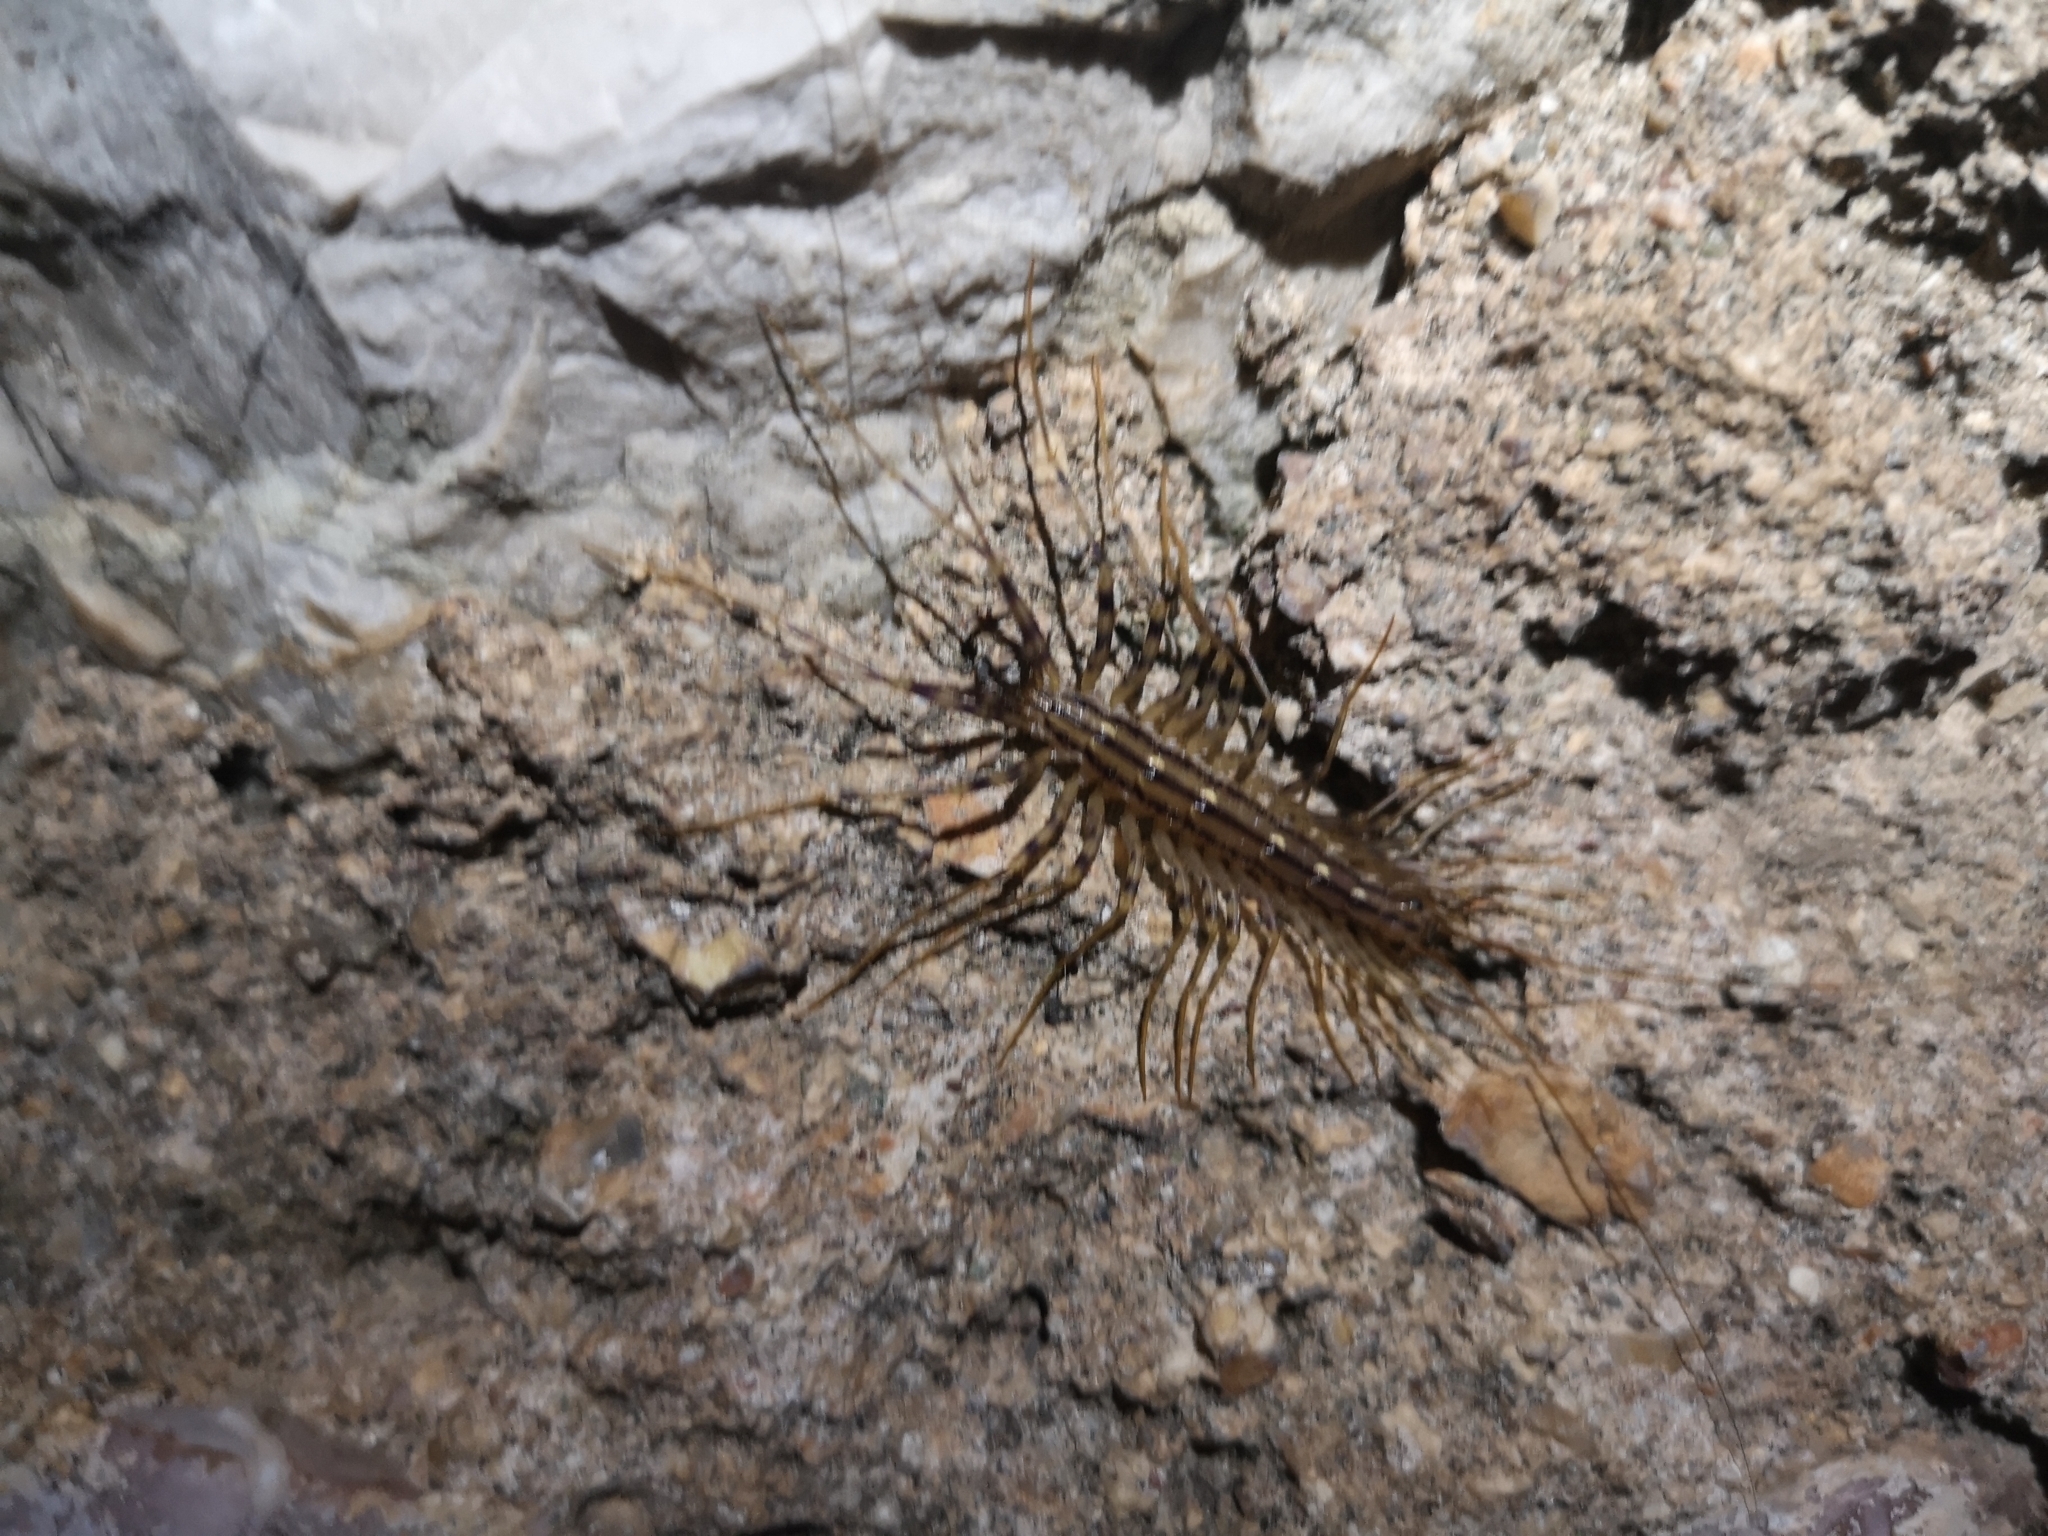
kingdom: Animalia
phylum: Arthropoda
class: Chilopoda
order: Scutigeromorpha
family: Scutigeridae
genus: Scutigera
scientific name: Scutigera coleoptrata
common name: House centipede
